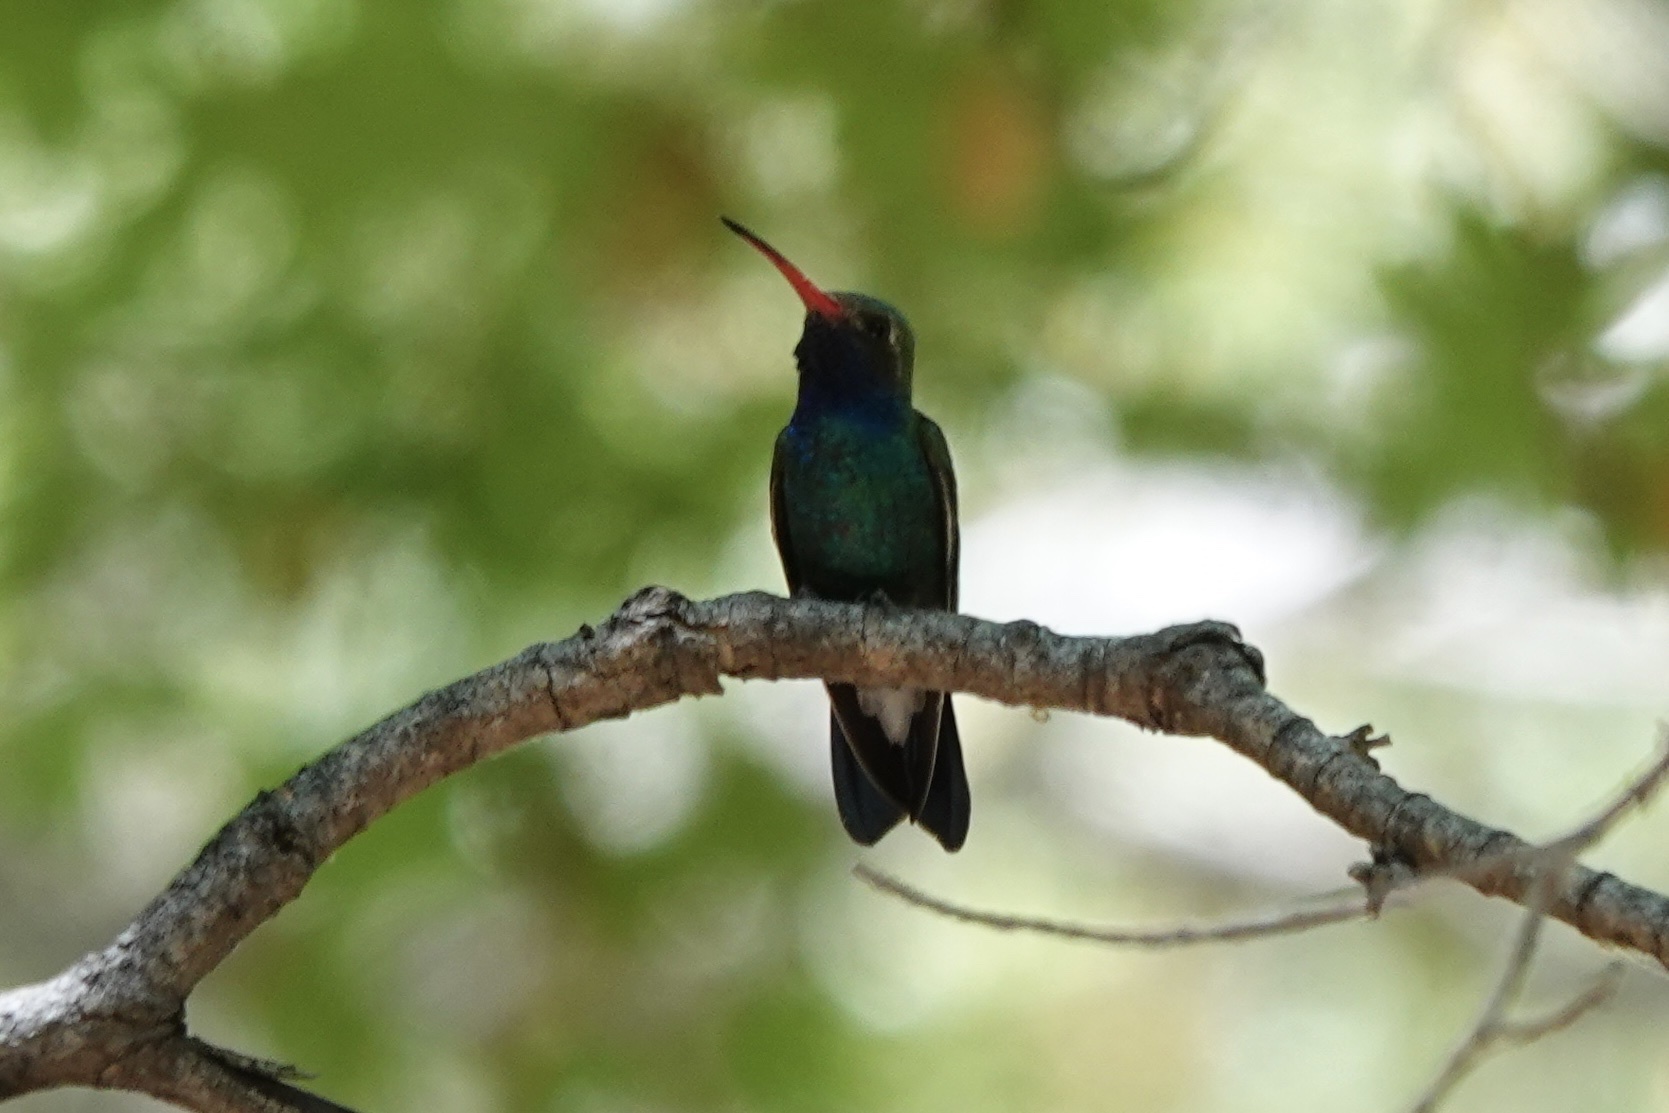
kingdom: Animalia
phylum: Chordata
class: Aves
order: Apodiformes
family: Trochilidae
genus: Cynanthus
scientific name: Cynanthus latirostris
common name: Broad-billed hummingbird
